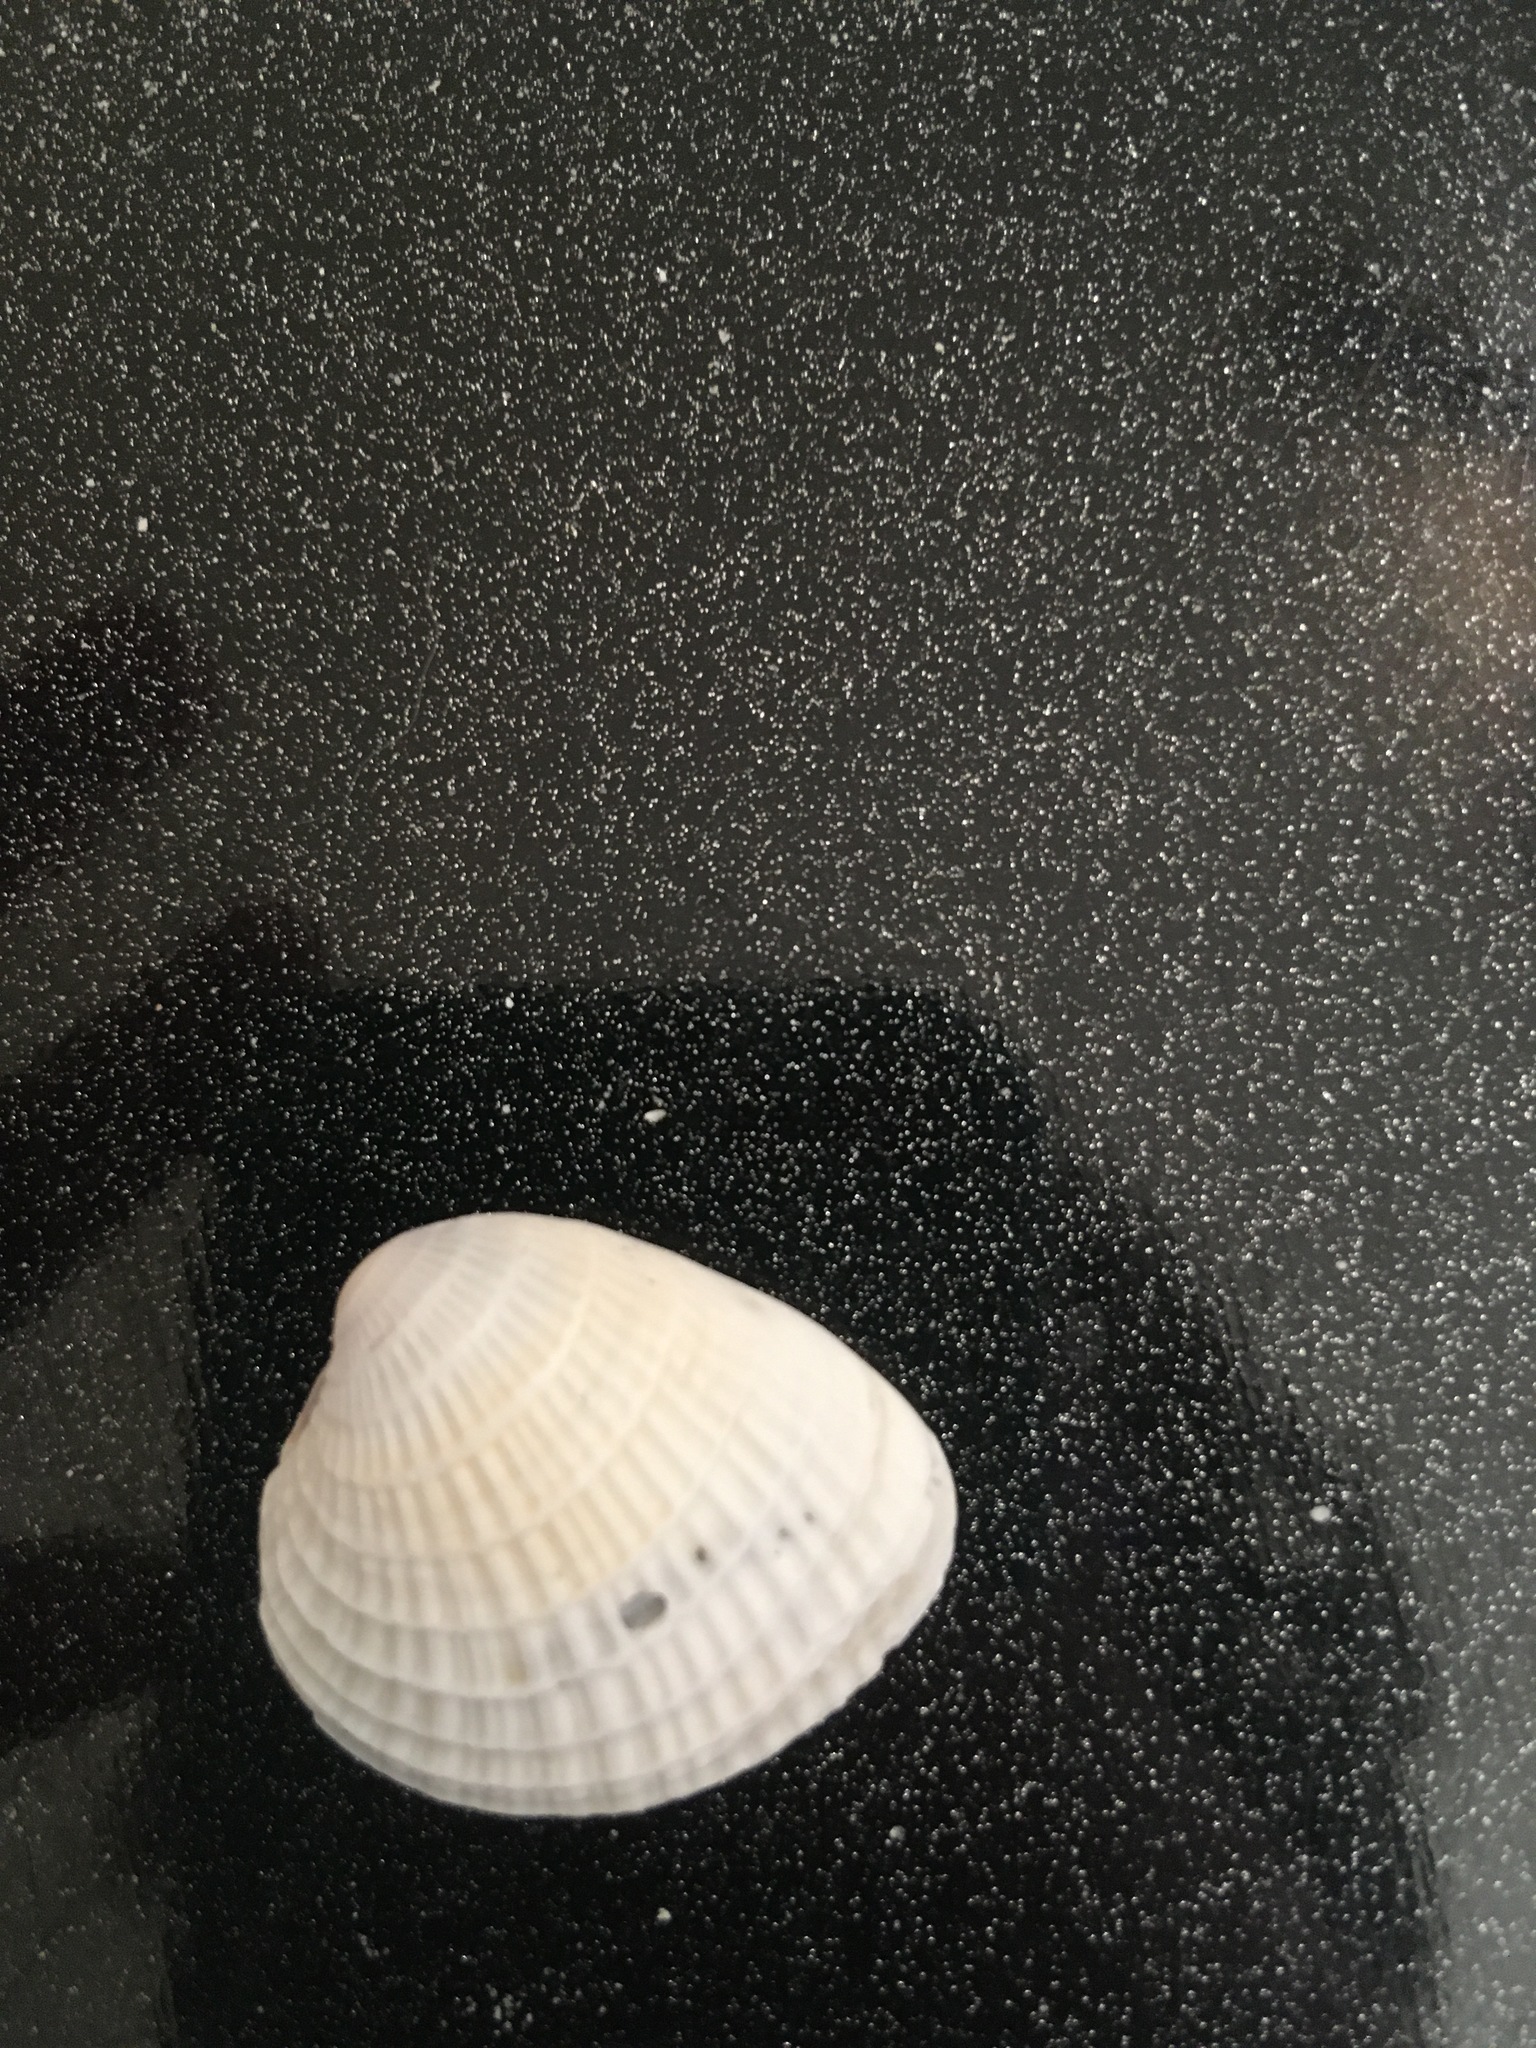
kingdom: Animalia
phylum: Mollusca
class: Bivalvia
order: Venerida
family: Veneridae
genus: Chione
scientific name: Chione elevata
